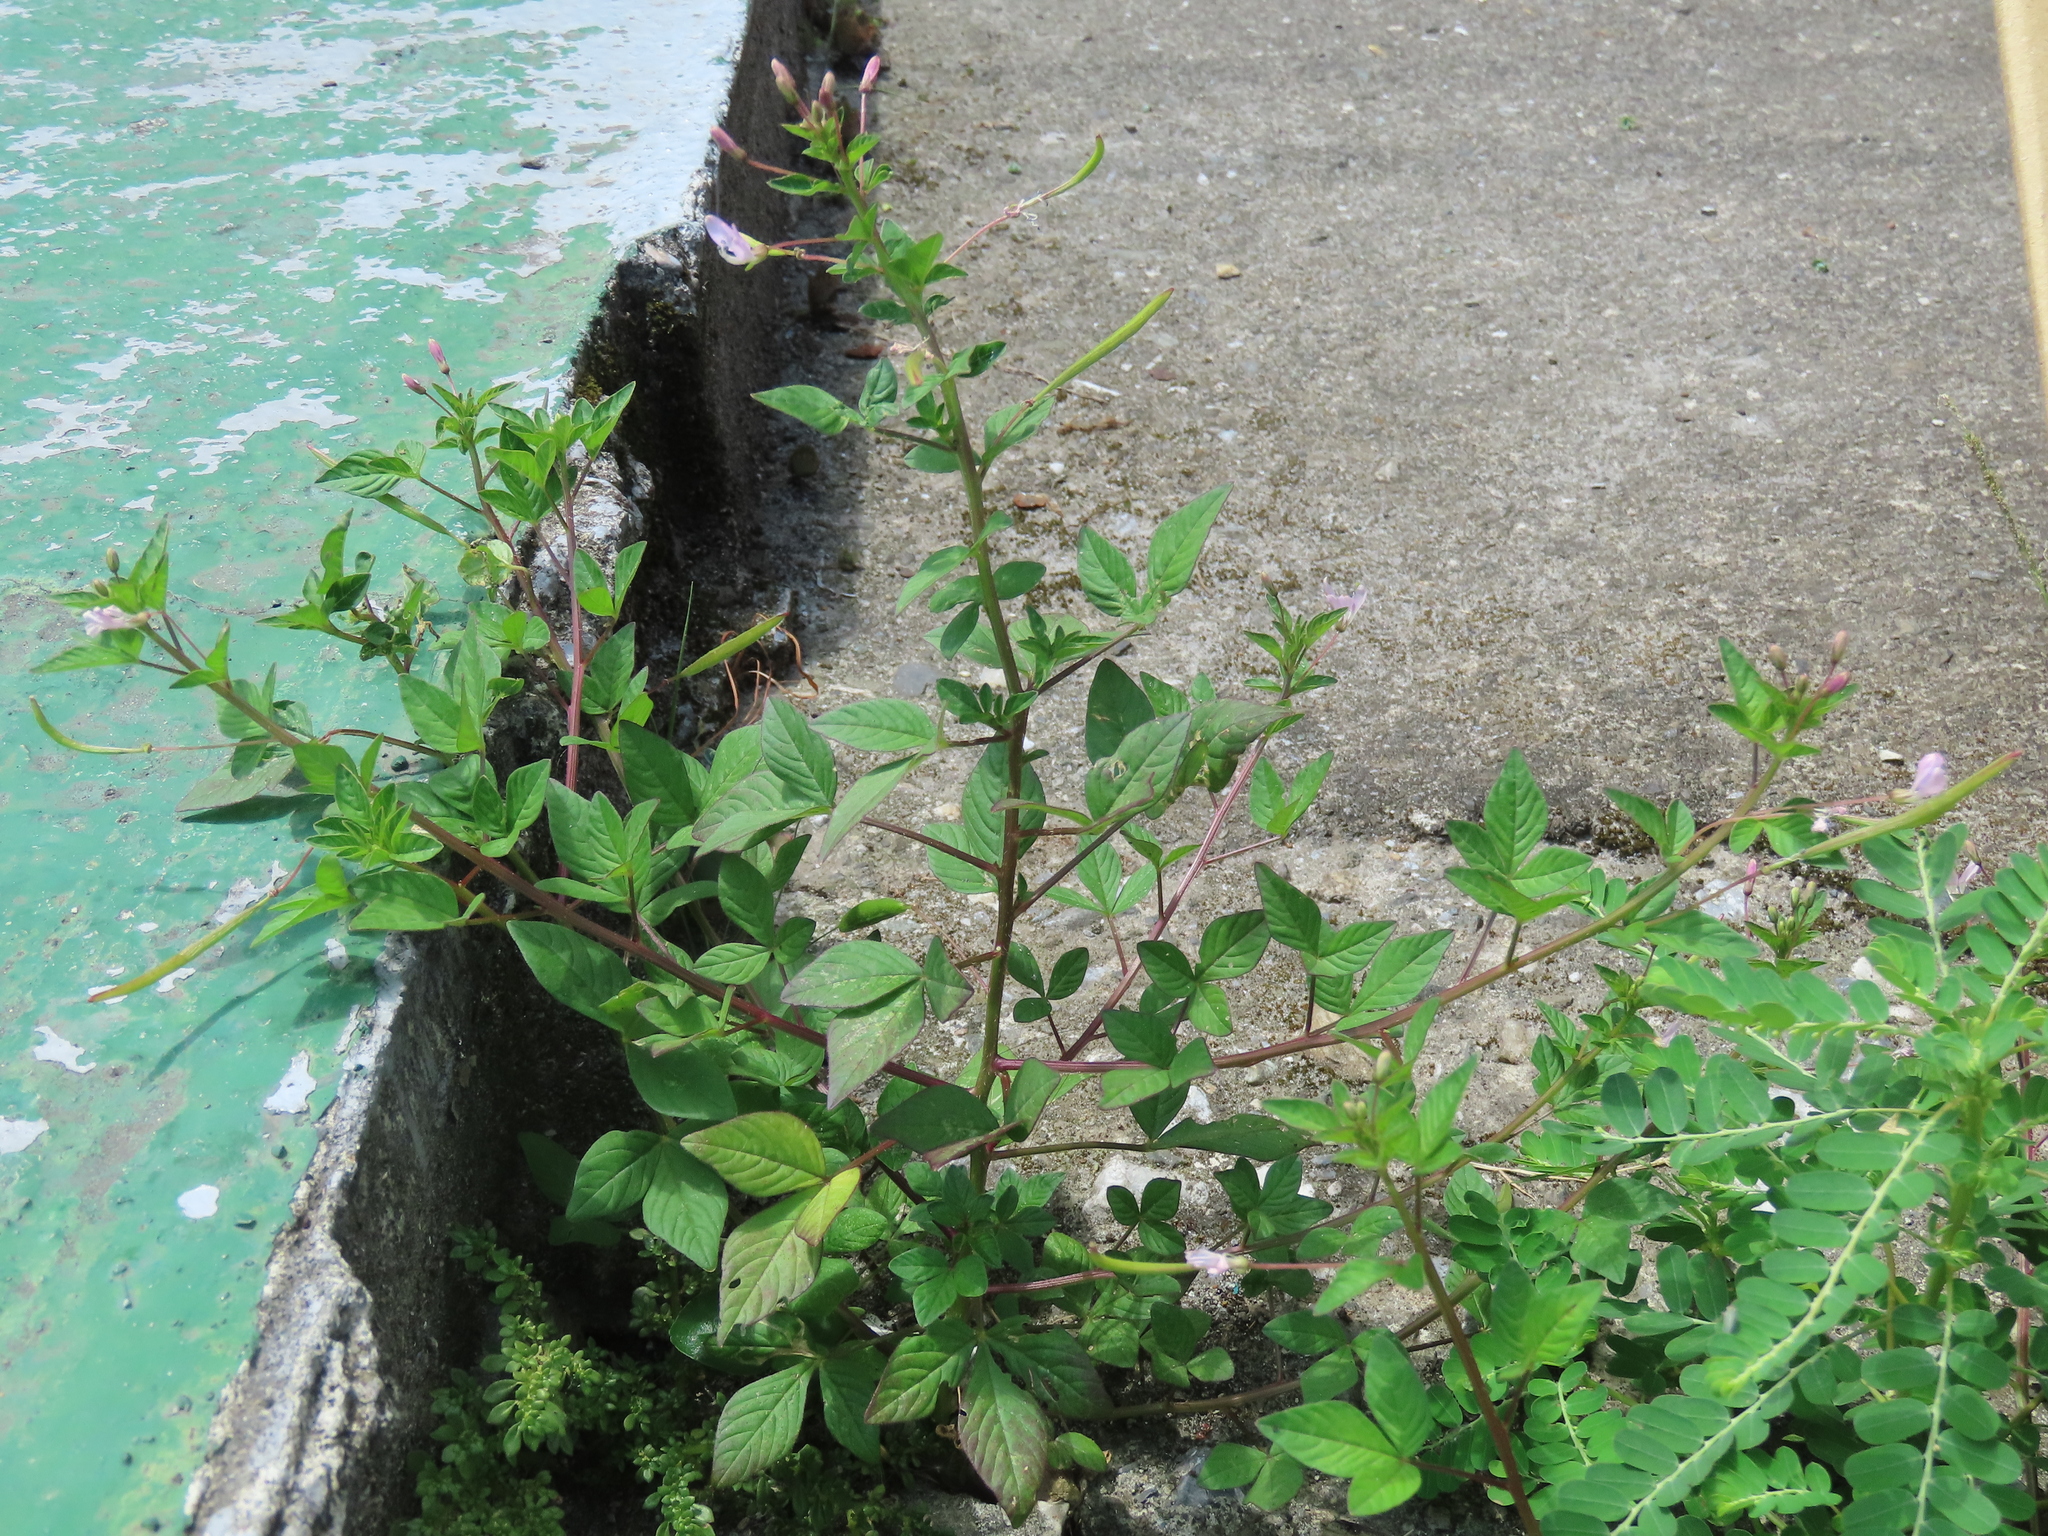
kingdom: Plantae
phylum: Tracheophyta
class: Magnoliopsida
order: Brassicales
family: Cleomaceae
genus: Sieruela
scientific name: Sieruela rutidosperma
